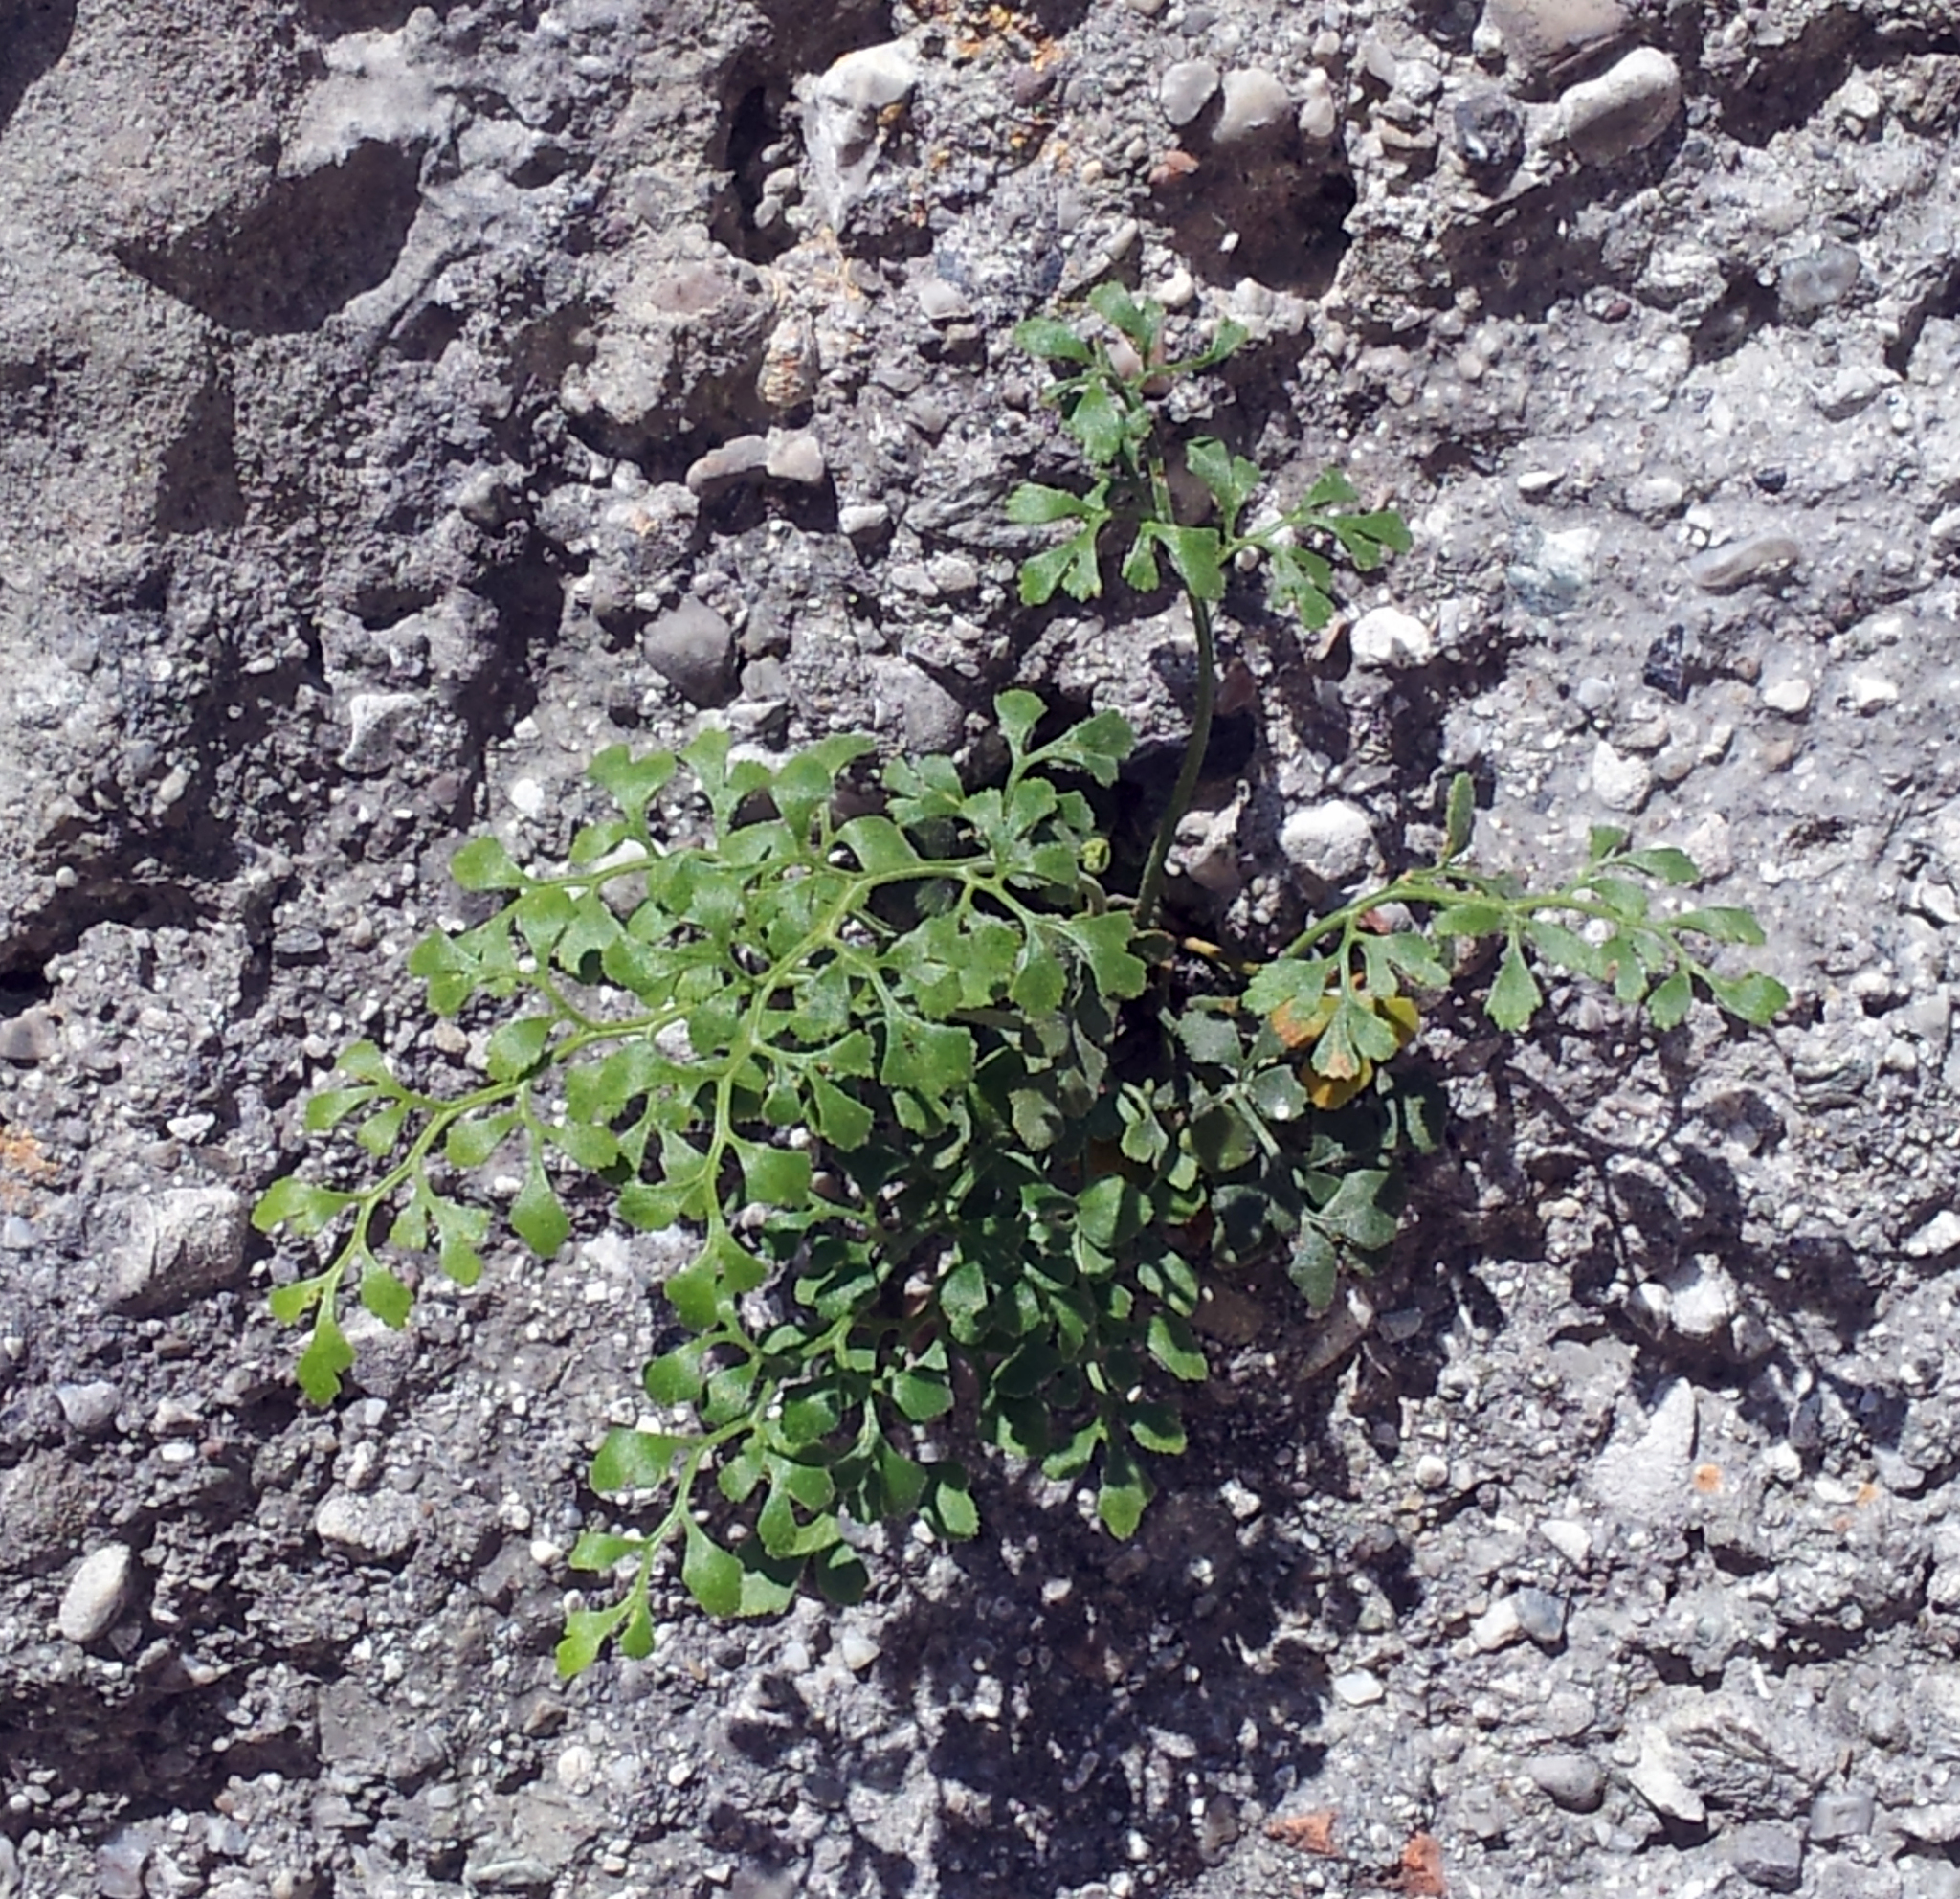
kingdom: Plantae
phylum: Tracheophyta
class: Polypodiopsida
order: Polypodiales
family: Aspleniaceae
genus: Asplenium
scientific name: Asplenium ruta-muraria
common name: Wall-rue
